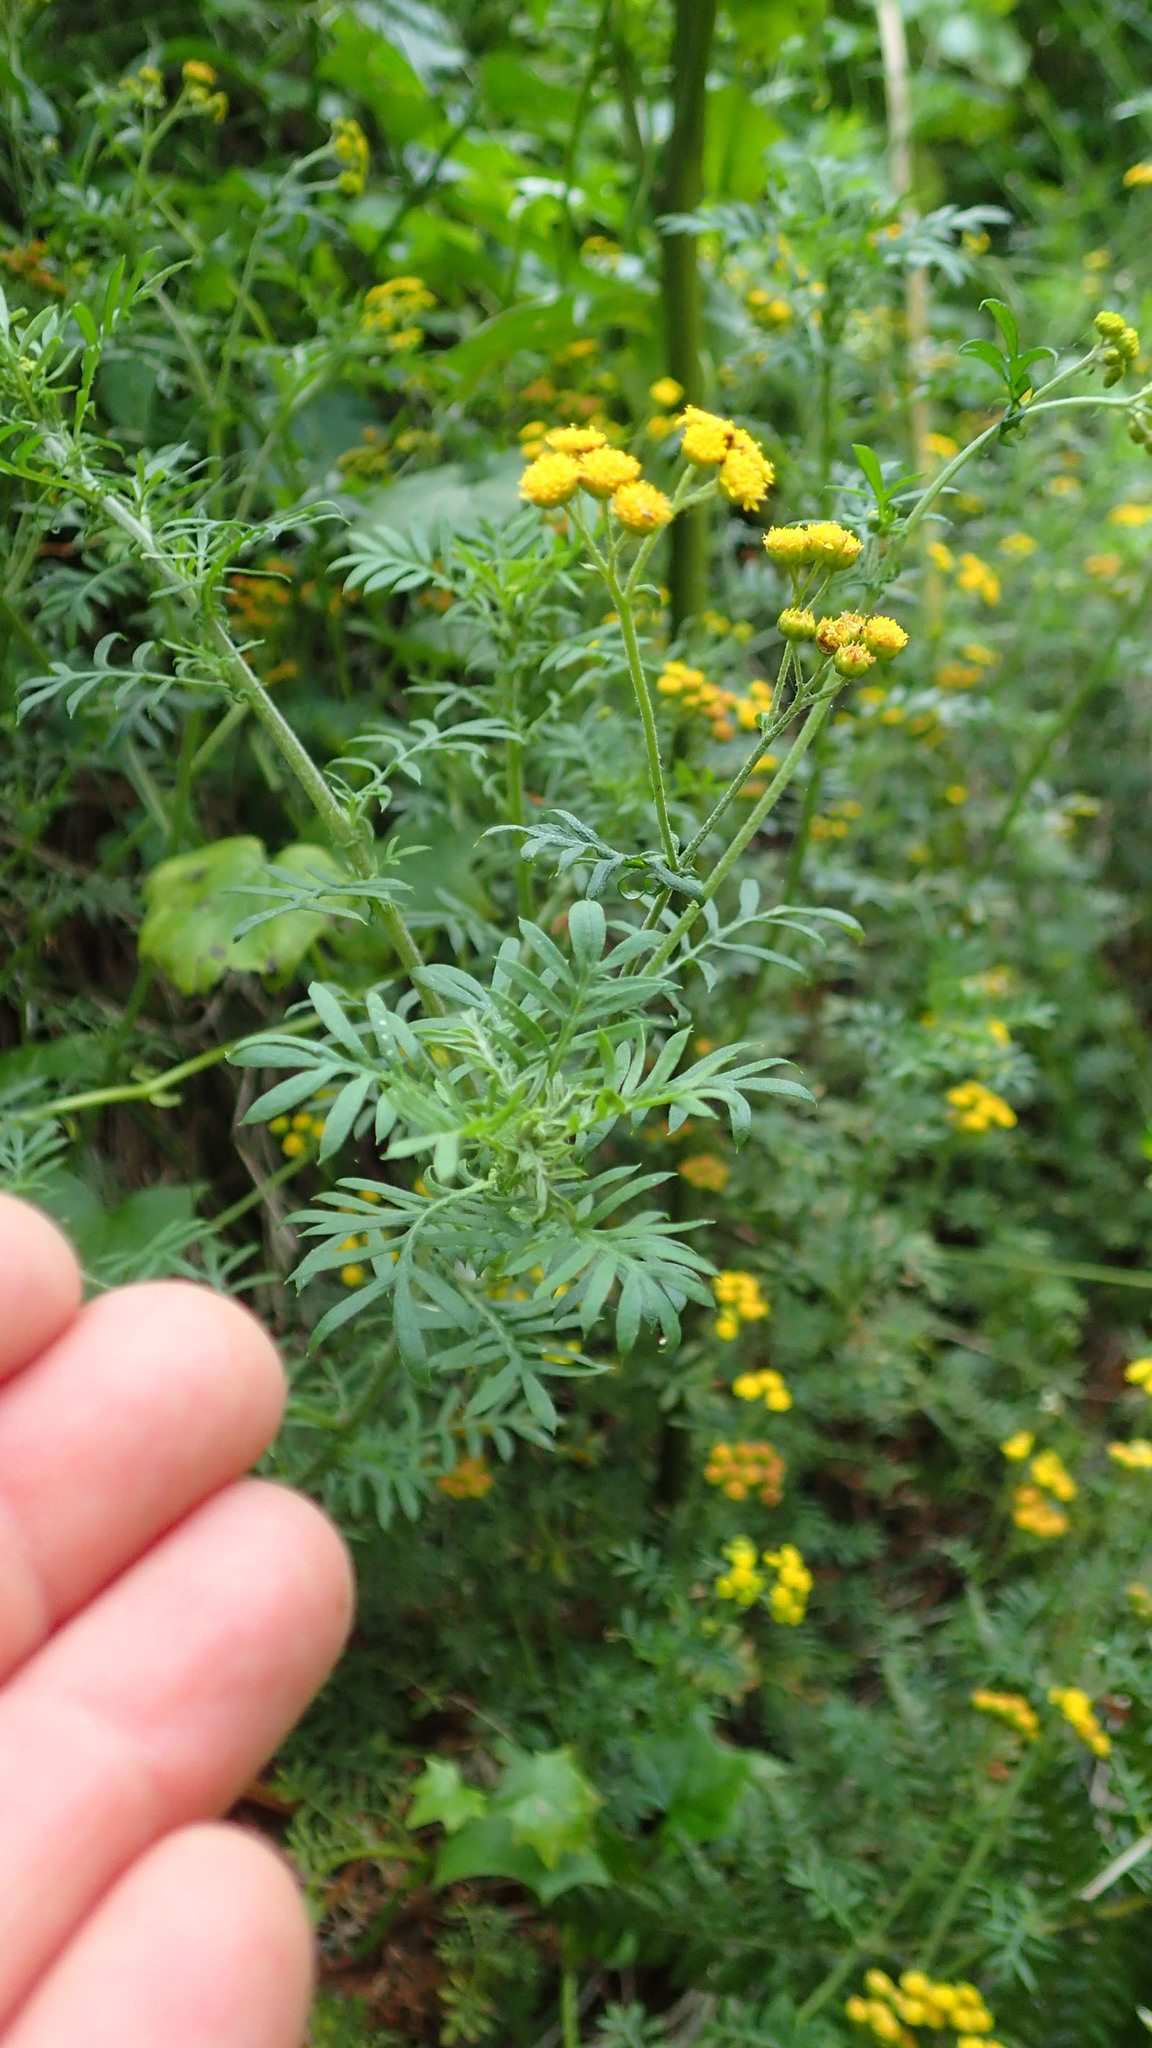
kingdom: Plantae
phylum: Tracheophyta
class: Magnoliopsida
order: Asterales
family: Asteraceae
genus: Hippia
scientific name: Hippia frutescens
